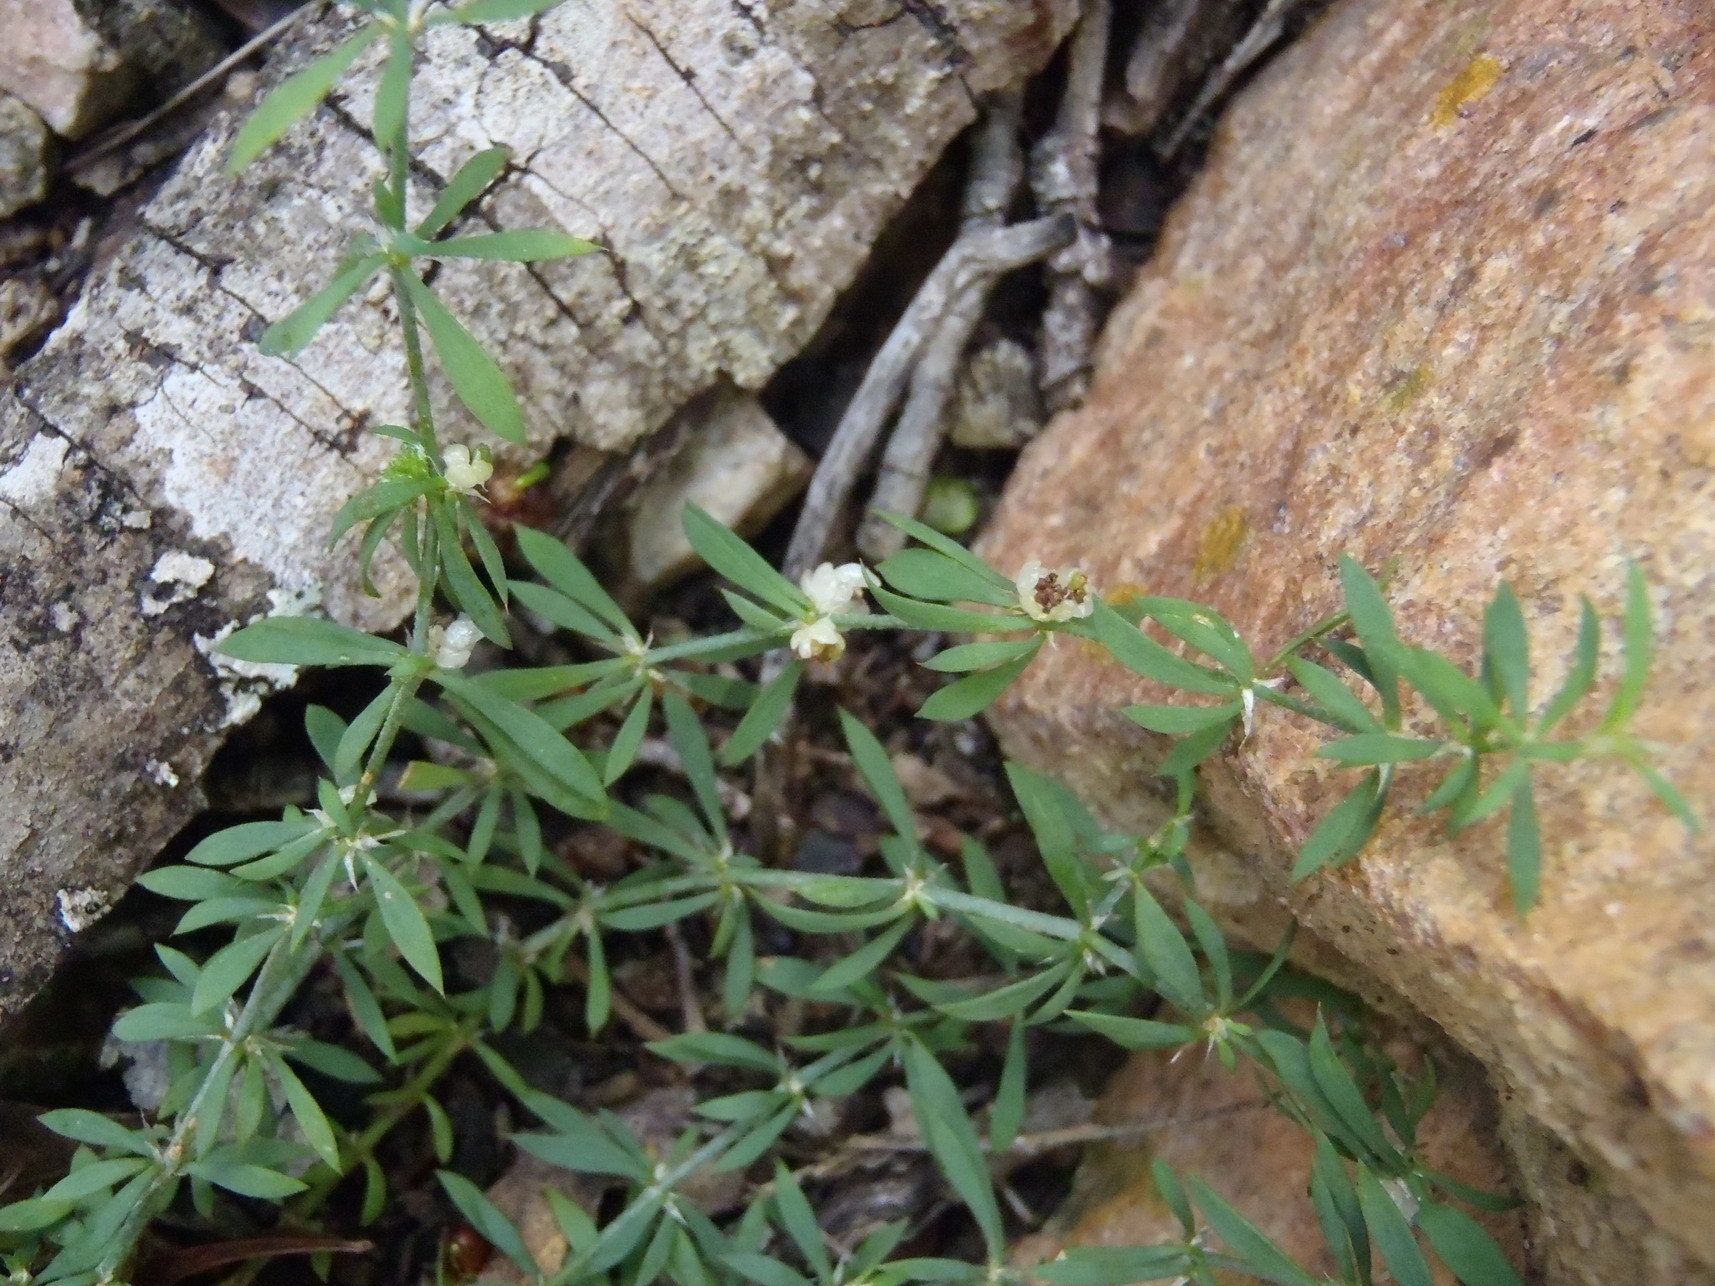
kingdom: Plantae
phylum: Tracheophyta
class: Magnoliopsida
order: Caryophyllales
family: Caryophyllaceae
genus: Pollichia
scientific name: Pollichia campestris
